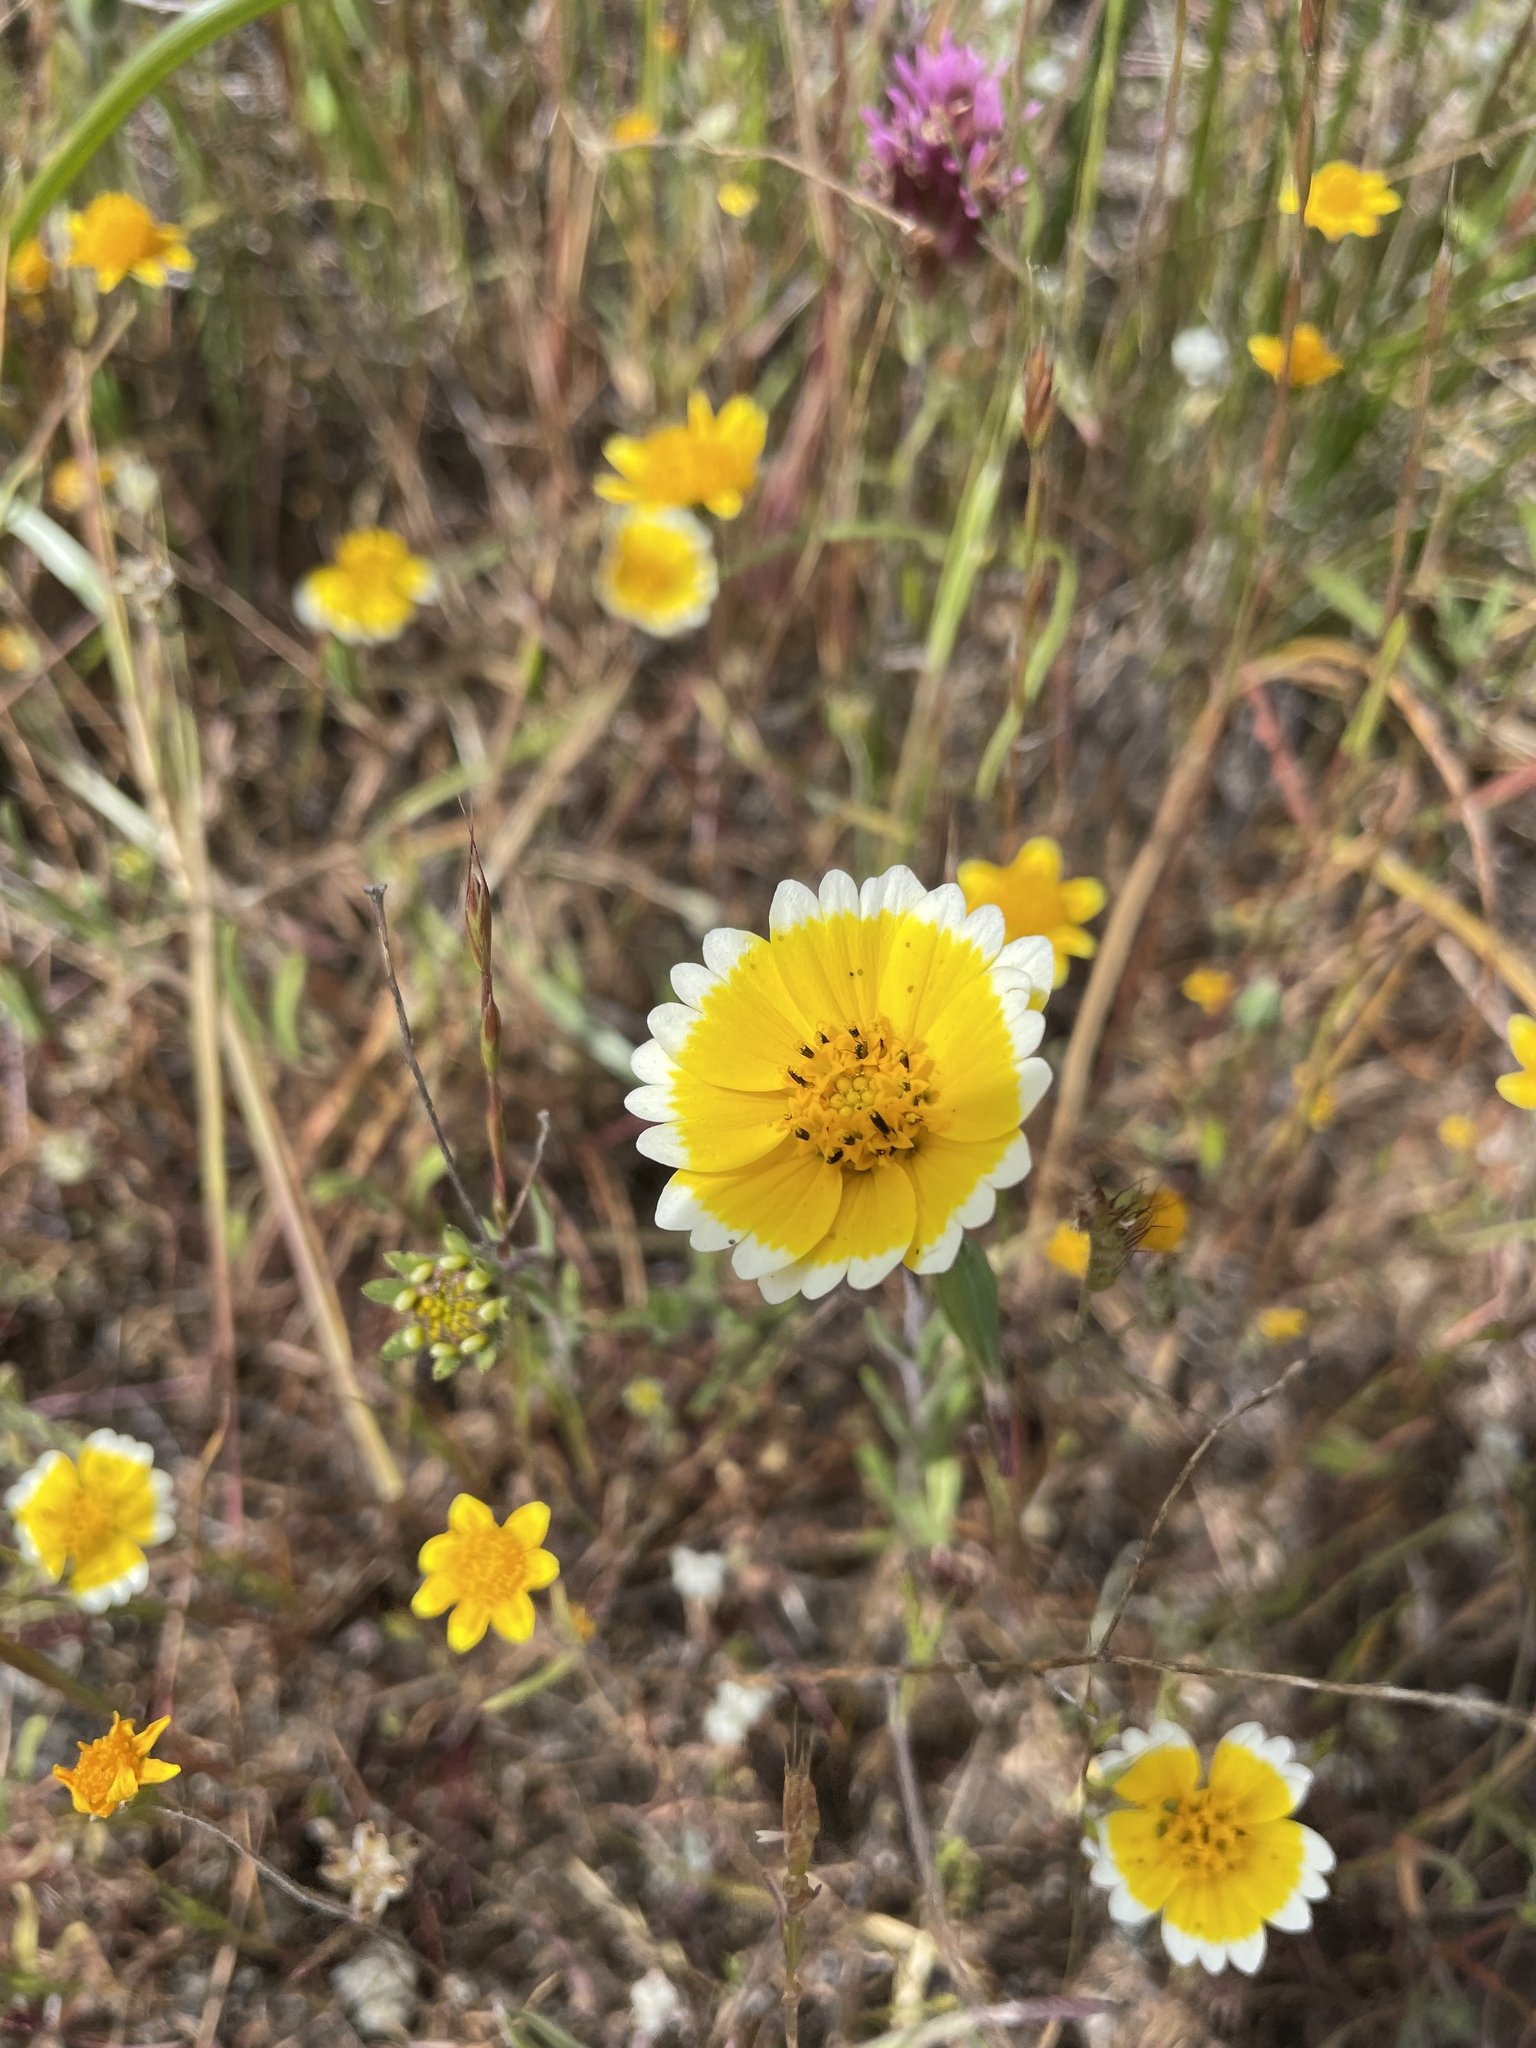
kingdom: Plantae
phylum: Tracheophyta
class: Magnoliopsida
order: Asterales
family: Asteraceae
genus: Layia
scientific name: Layia platyglossa
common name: Tidy-tips
